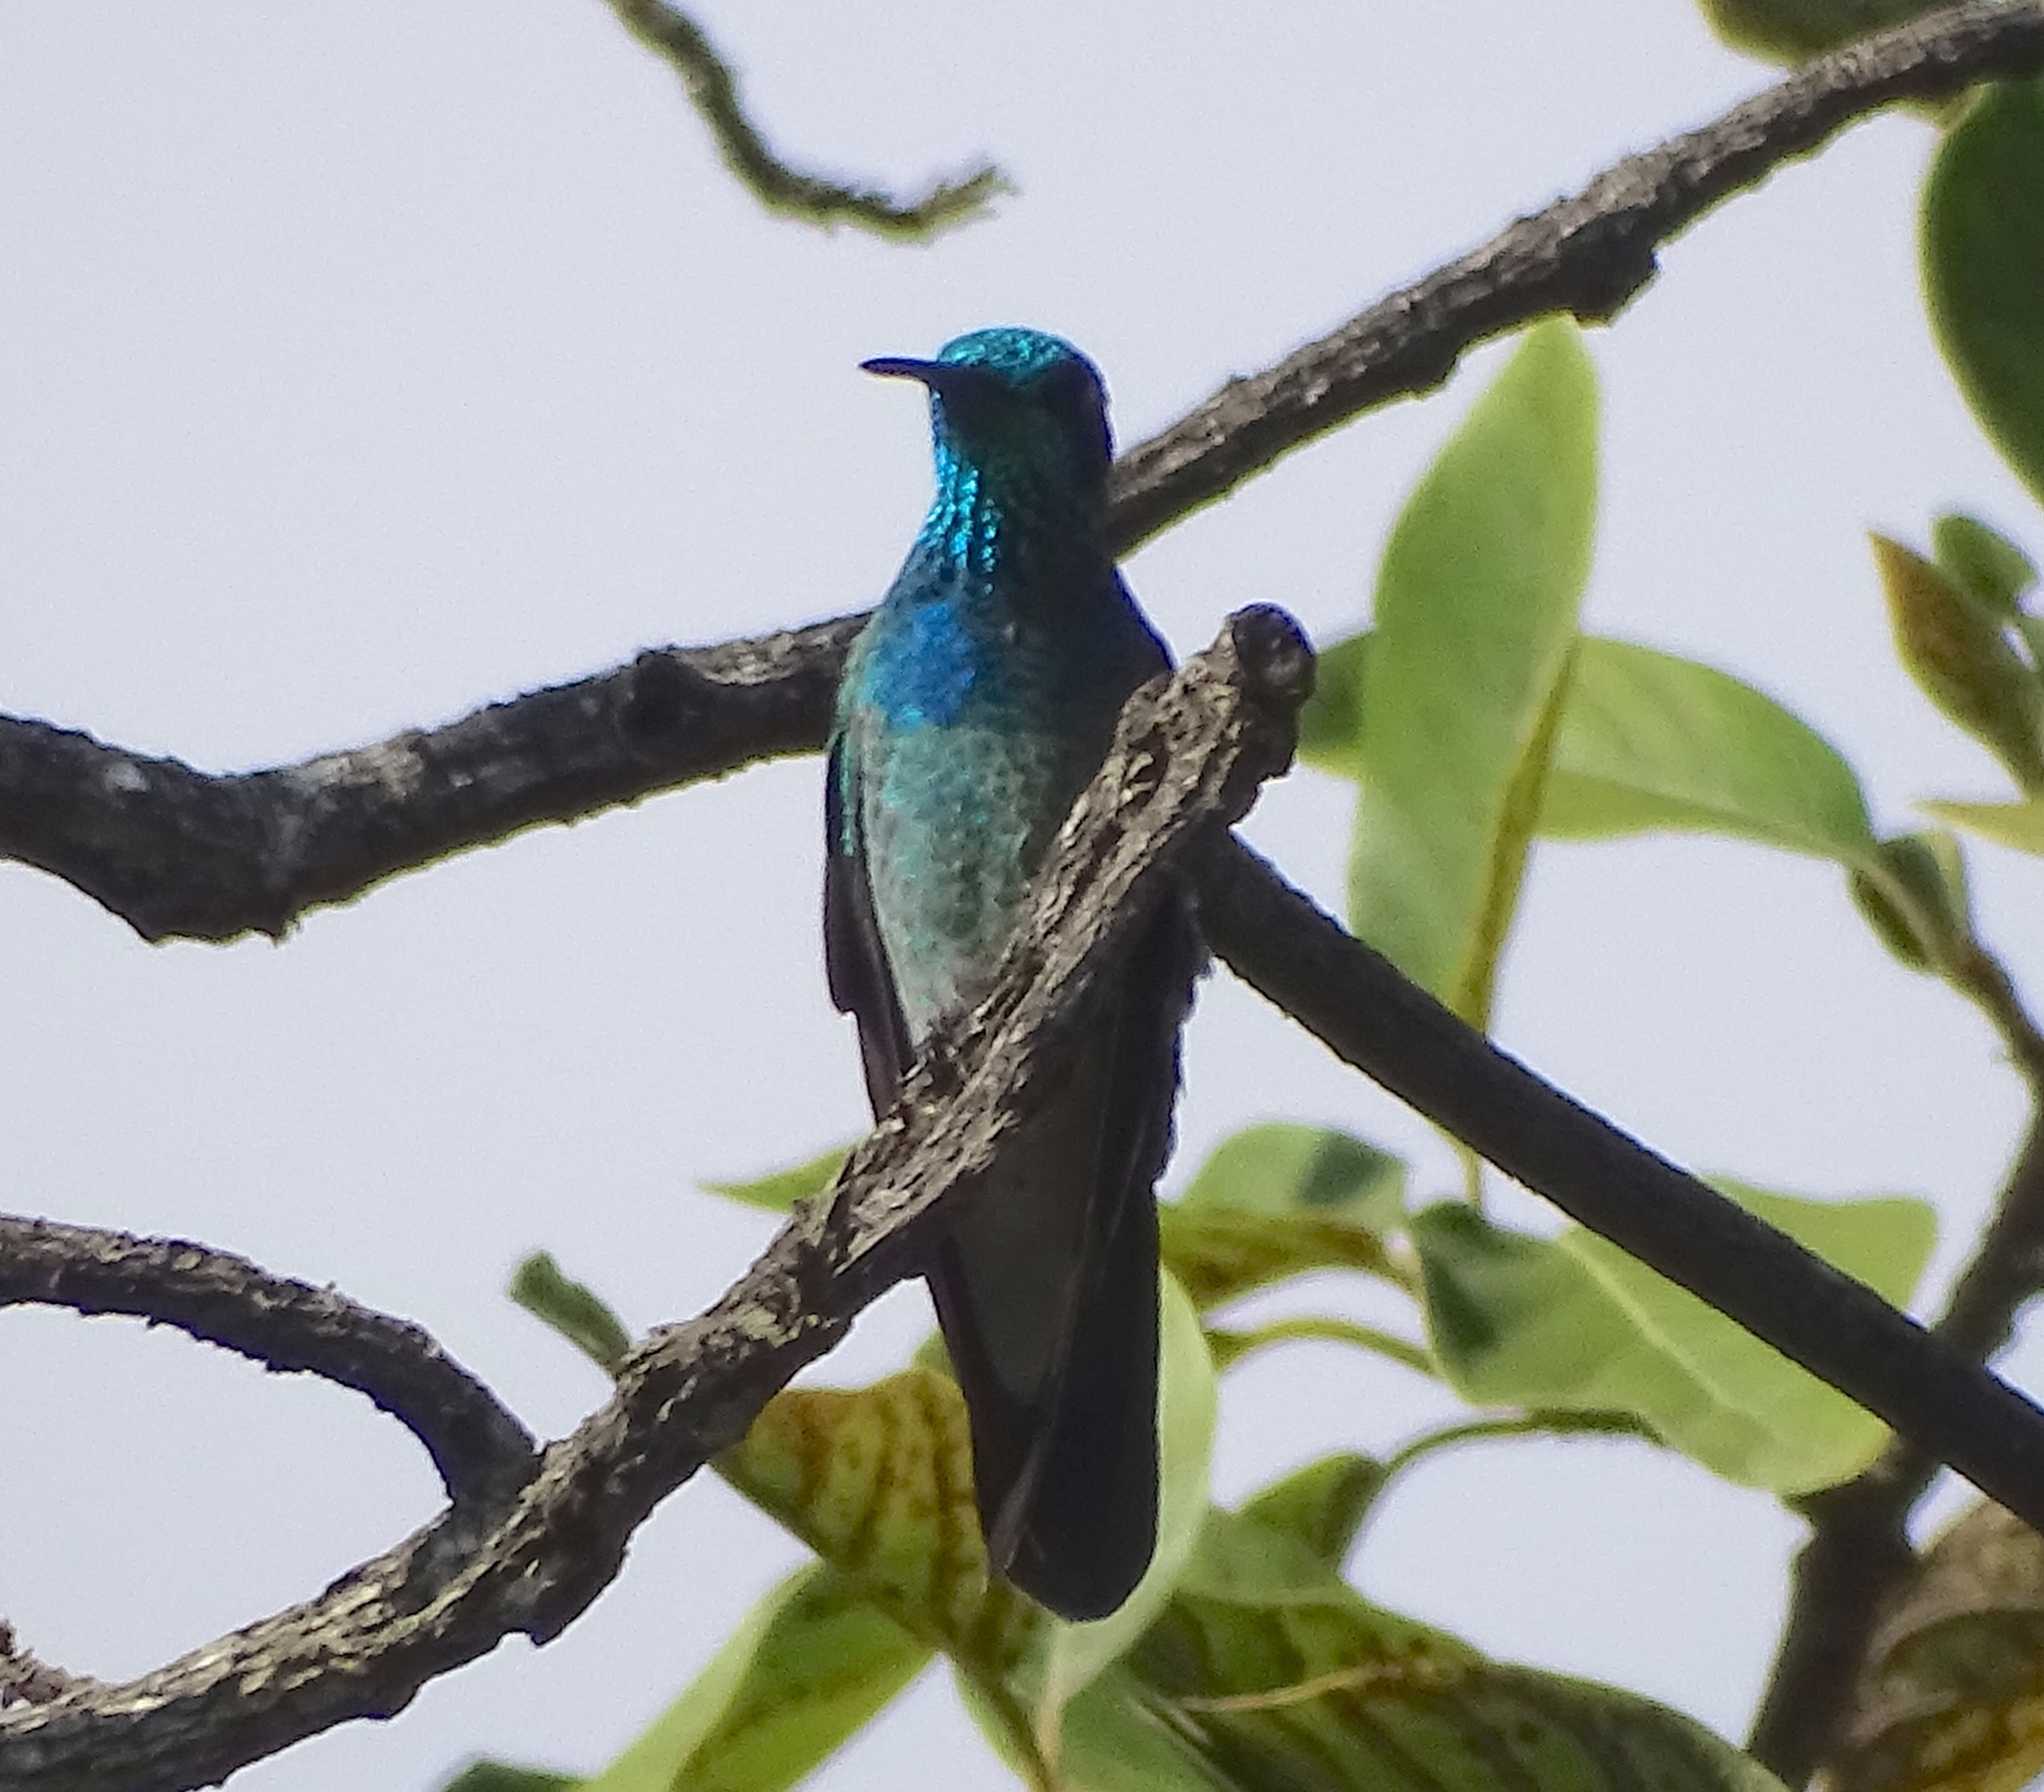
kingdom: Animalia
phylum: Chordata
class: Aves
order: Apodiformes
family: Trochilidae
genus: Colibri
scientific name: Colibri serrirostris
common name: White-vented violetear
